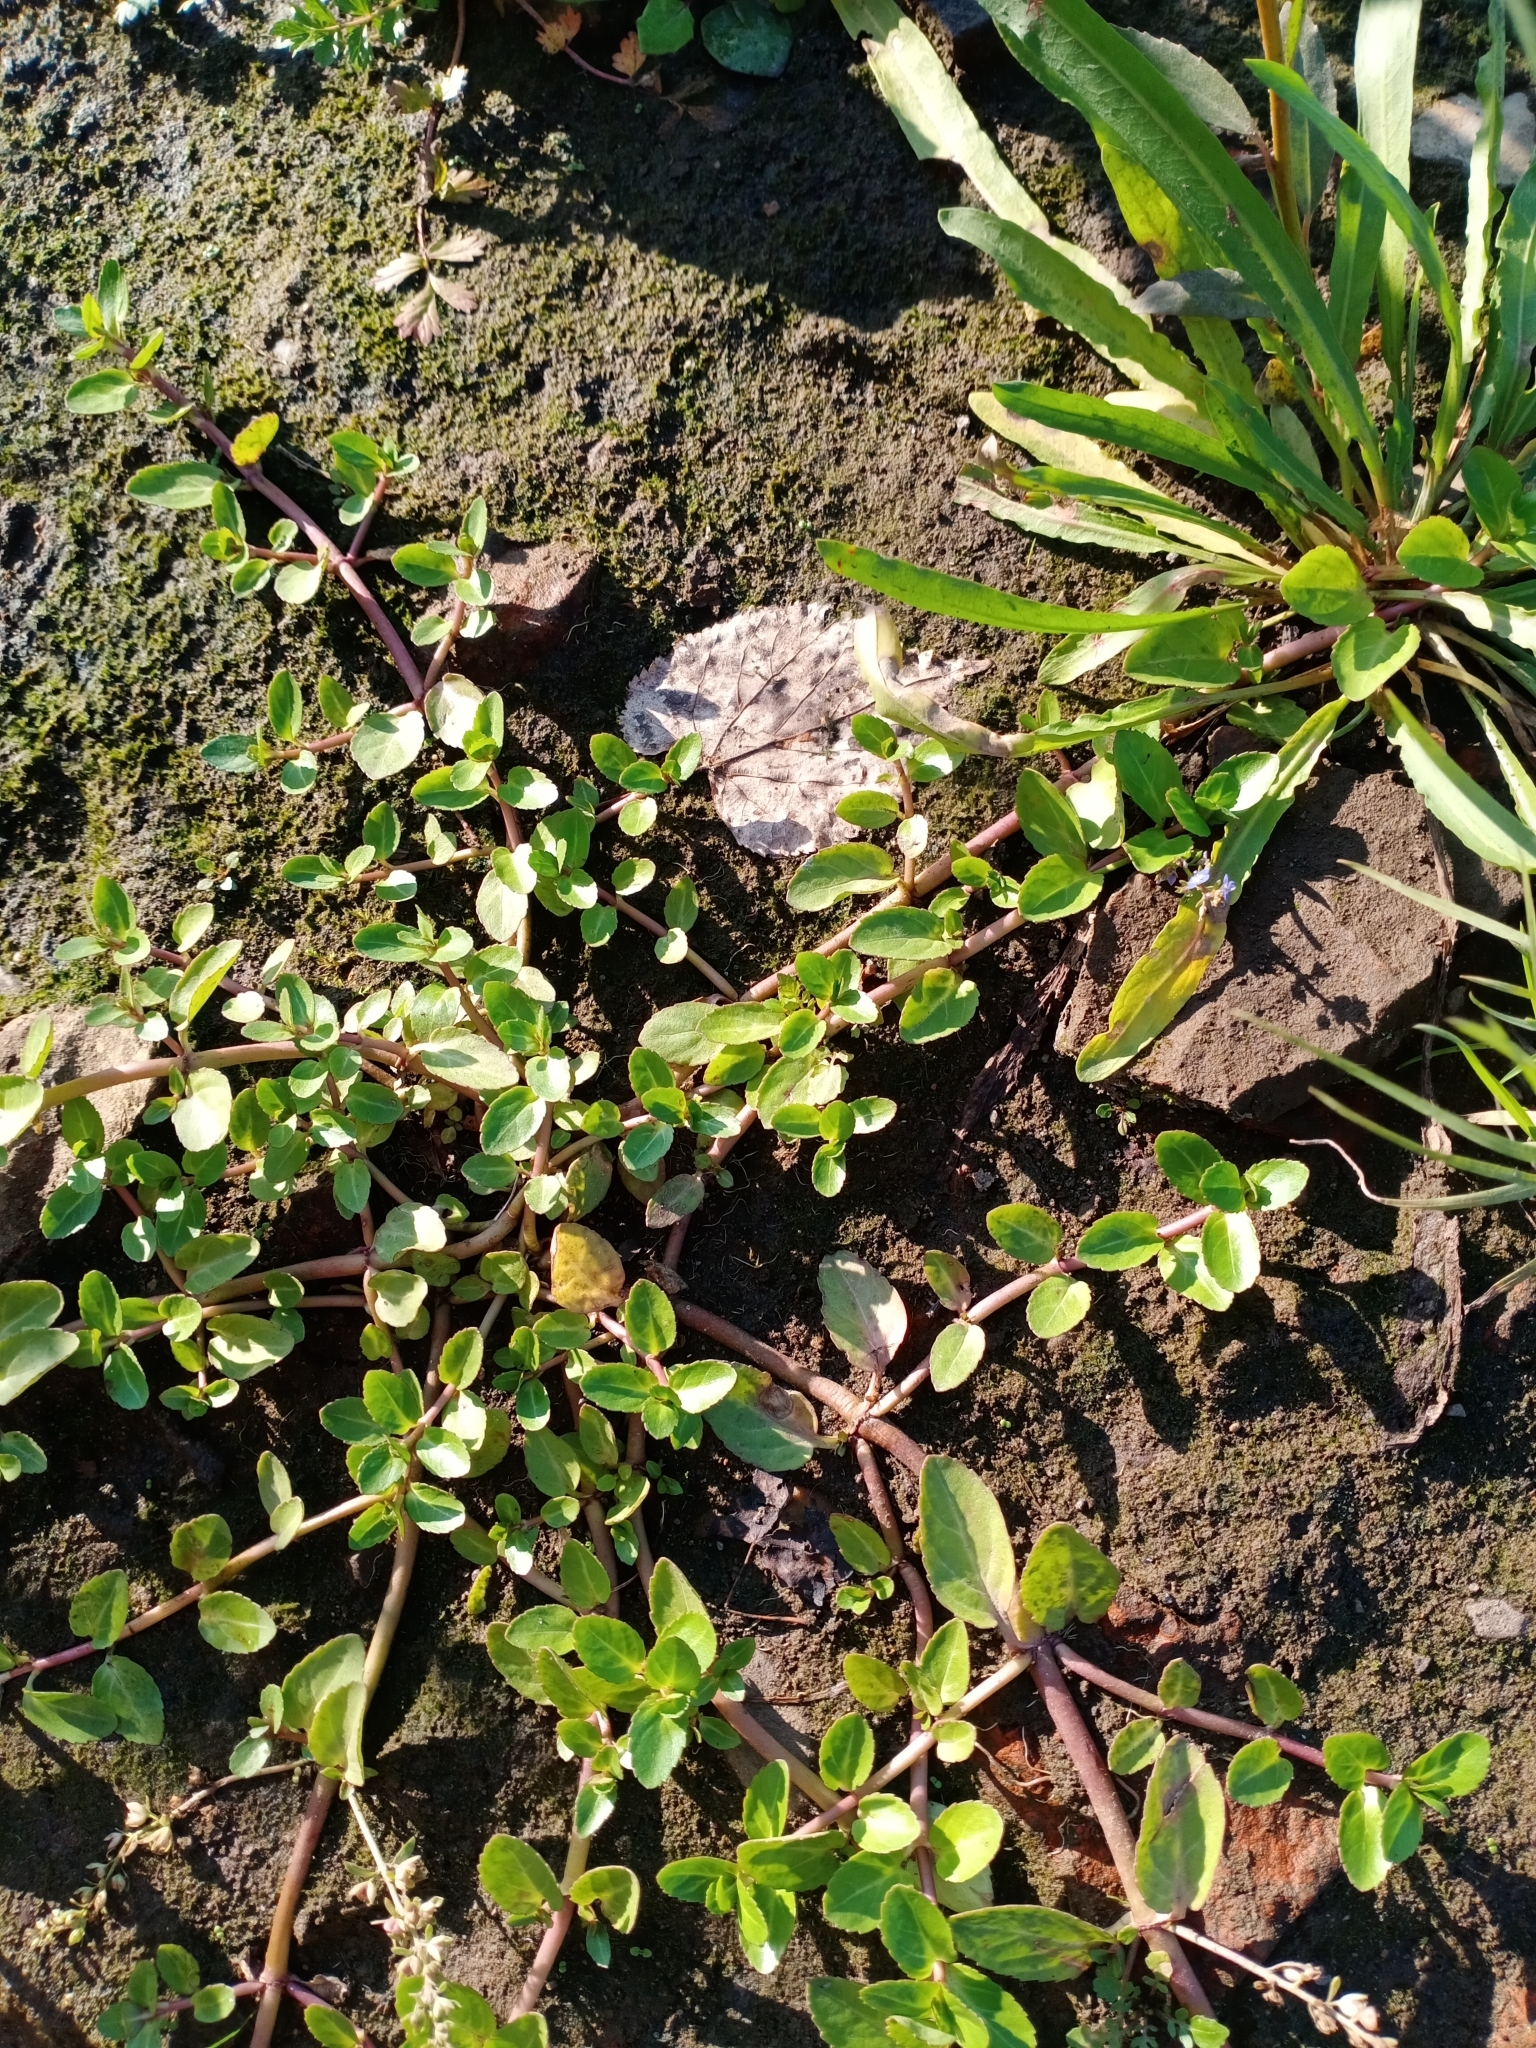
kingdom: Plantae
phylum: Tracheophyta
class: Magnoliopsida
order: Lamiales
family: Plantaginaceae
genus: Veronica
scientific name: Veronica beccabunga
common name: Brooklime
